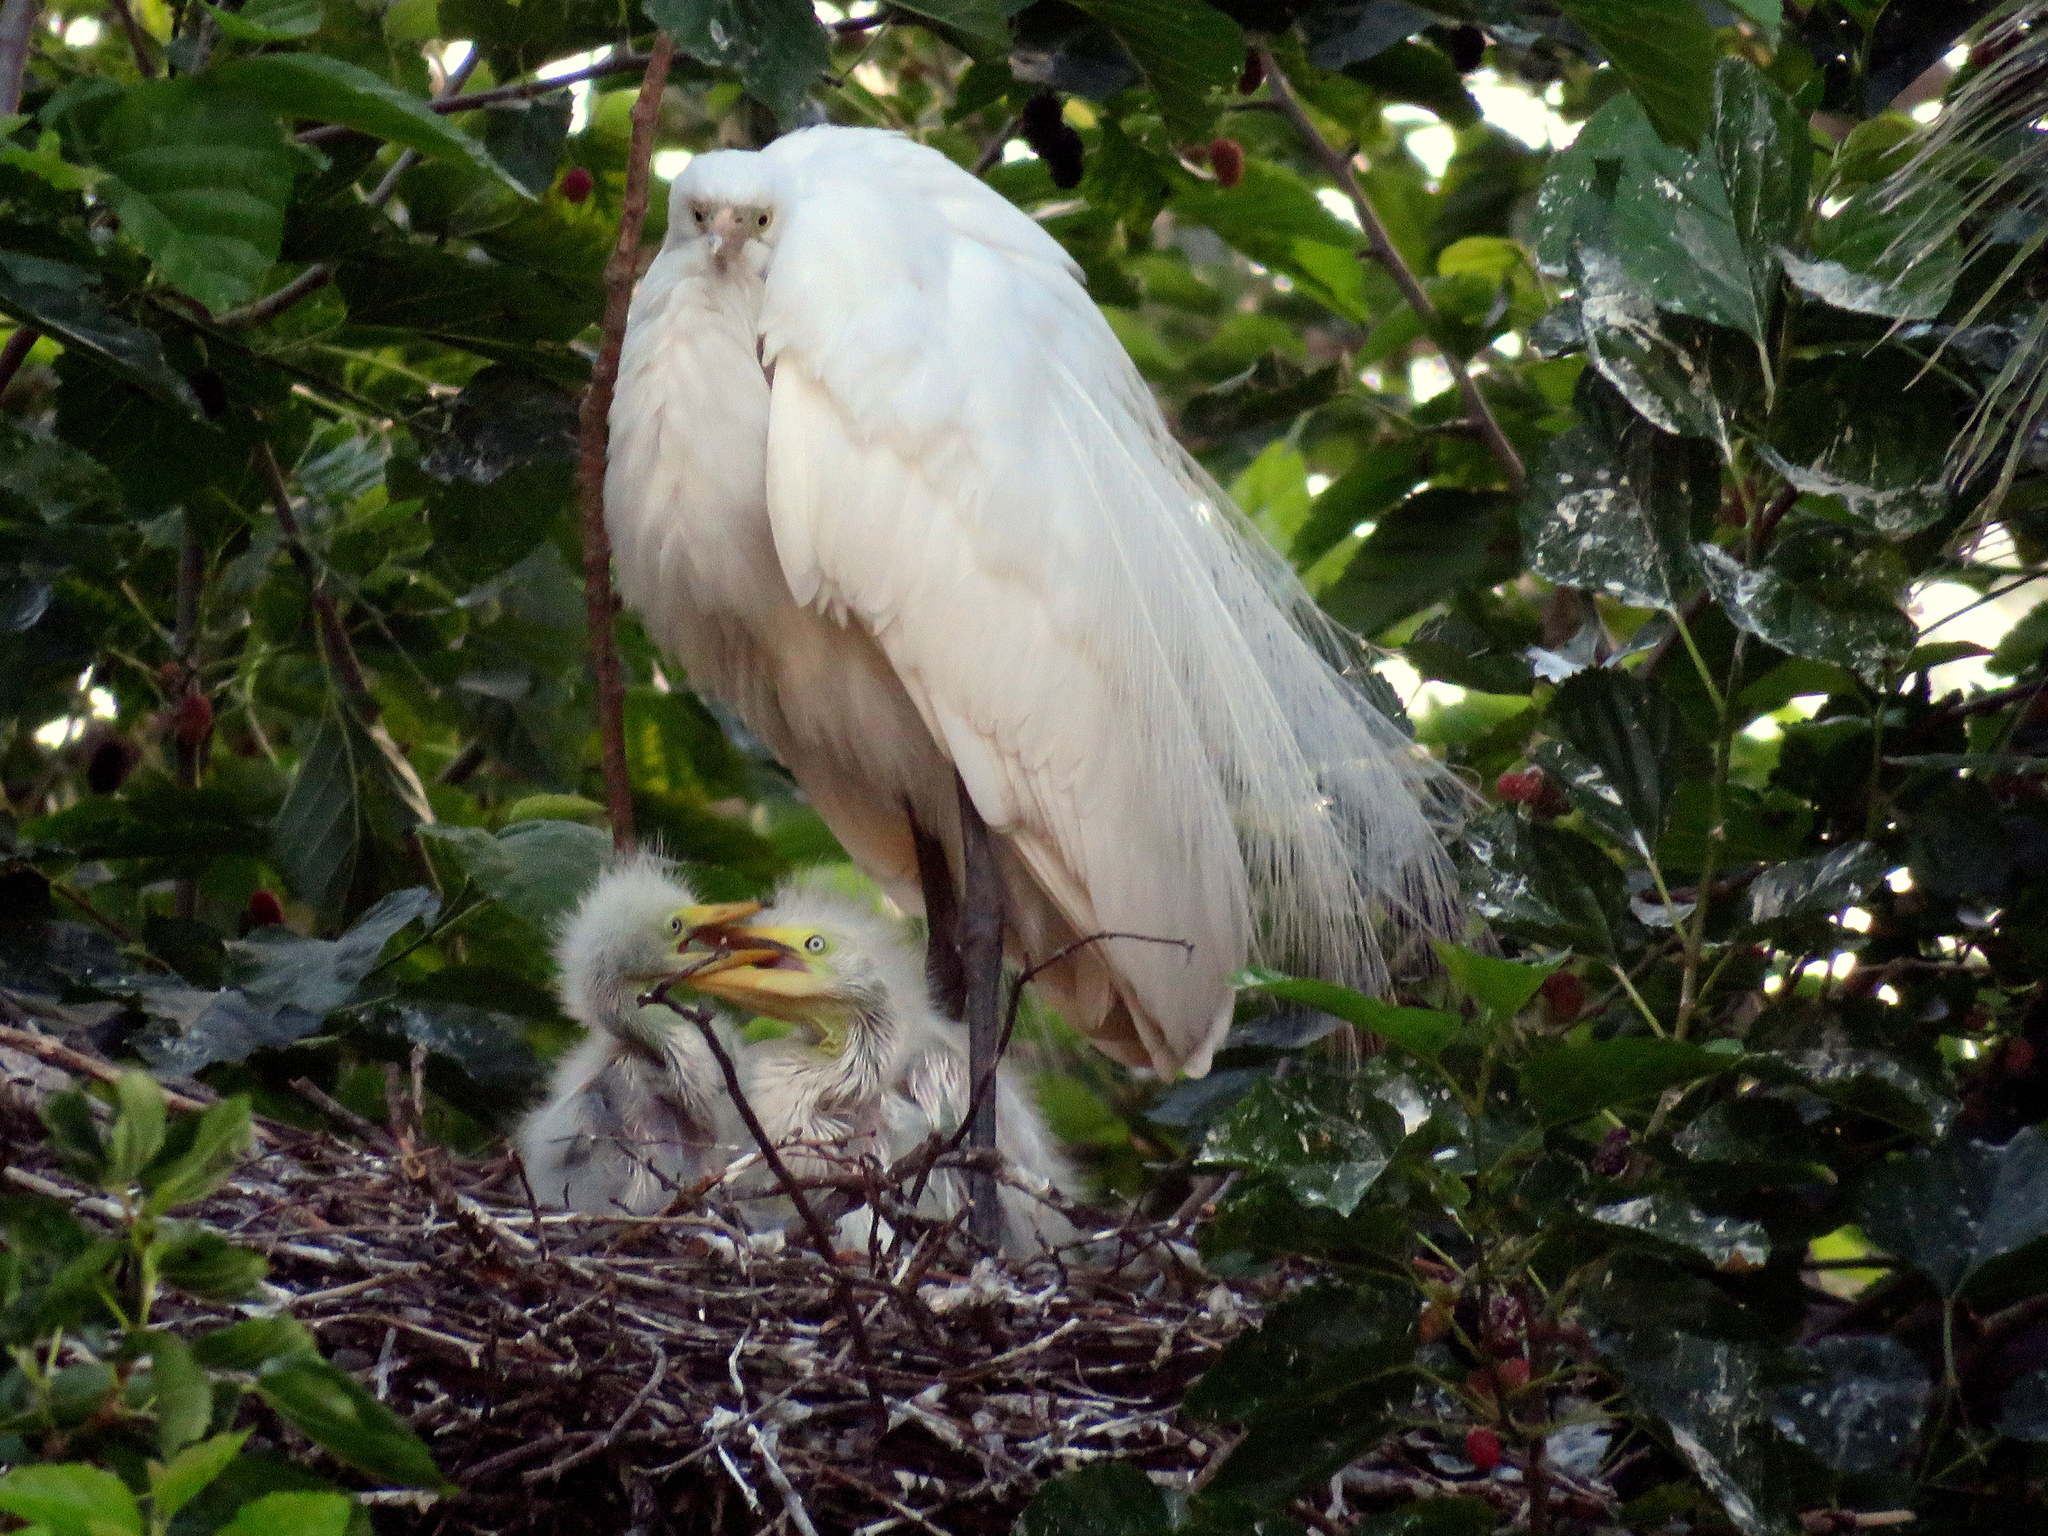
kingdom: Animalia
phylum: Chordata
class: Aves
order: Pelecaniformes
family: Ardeidae
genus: Ardea
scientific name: Ardea alba
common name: Great egret
